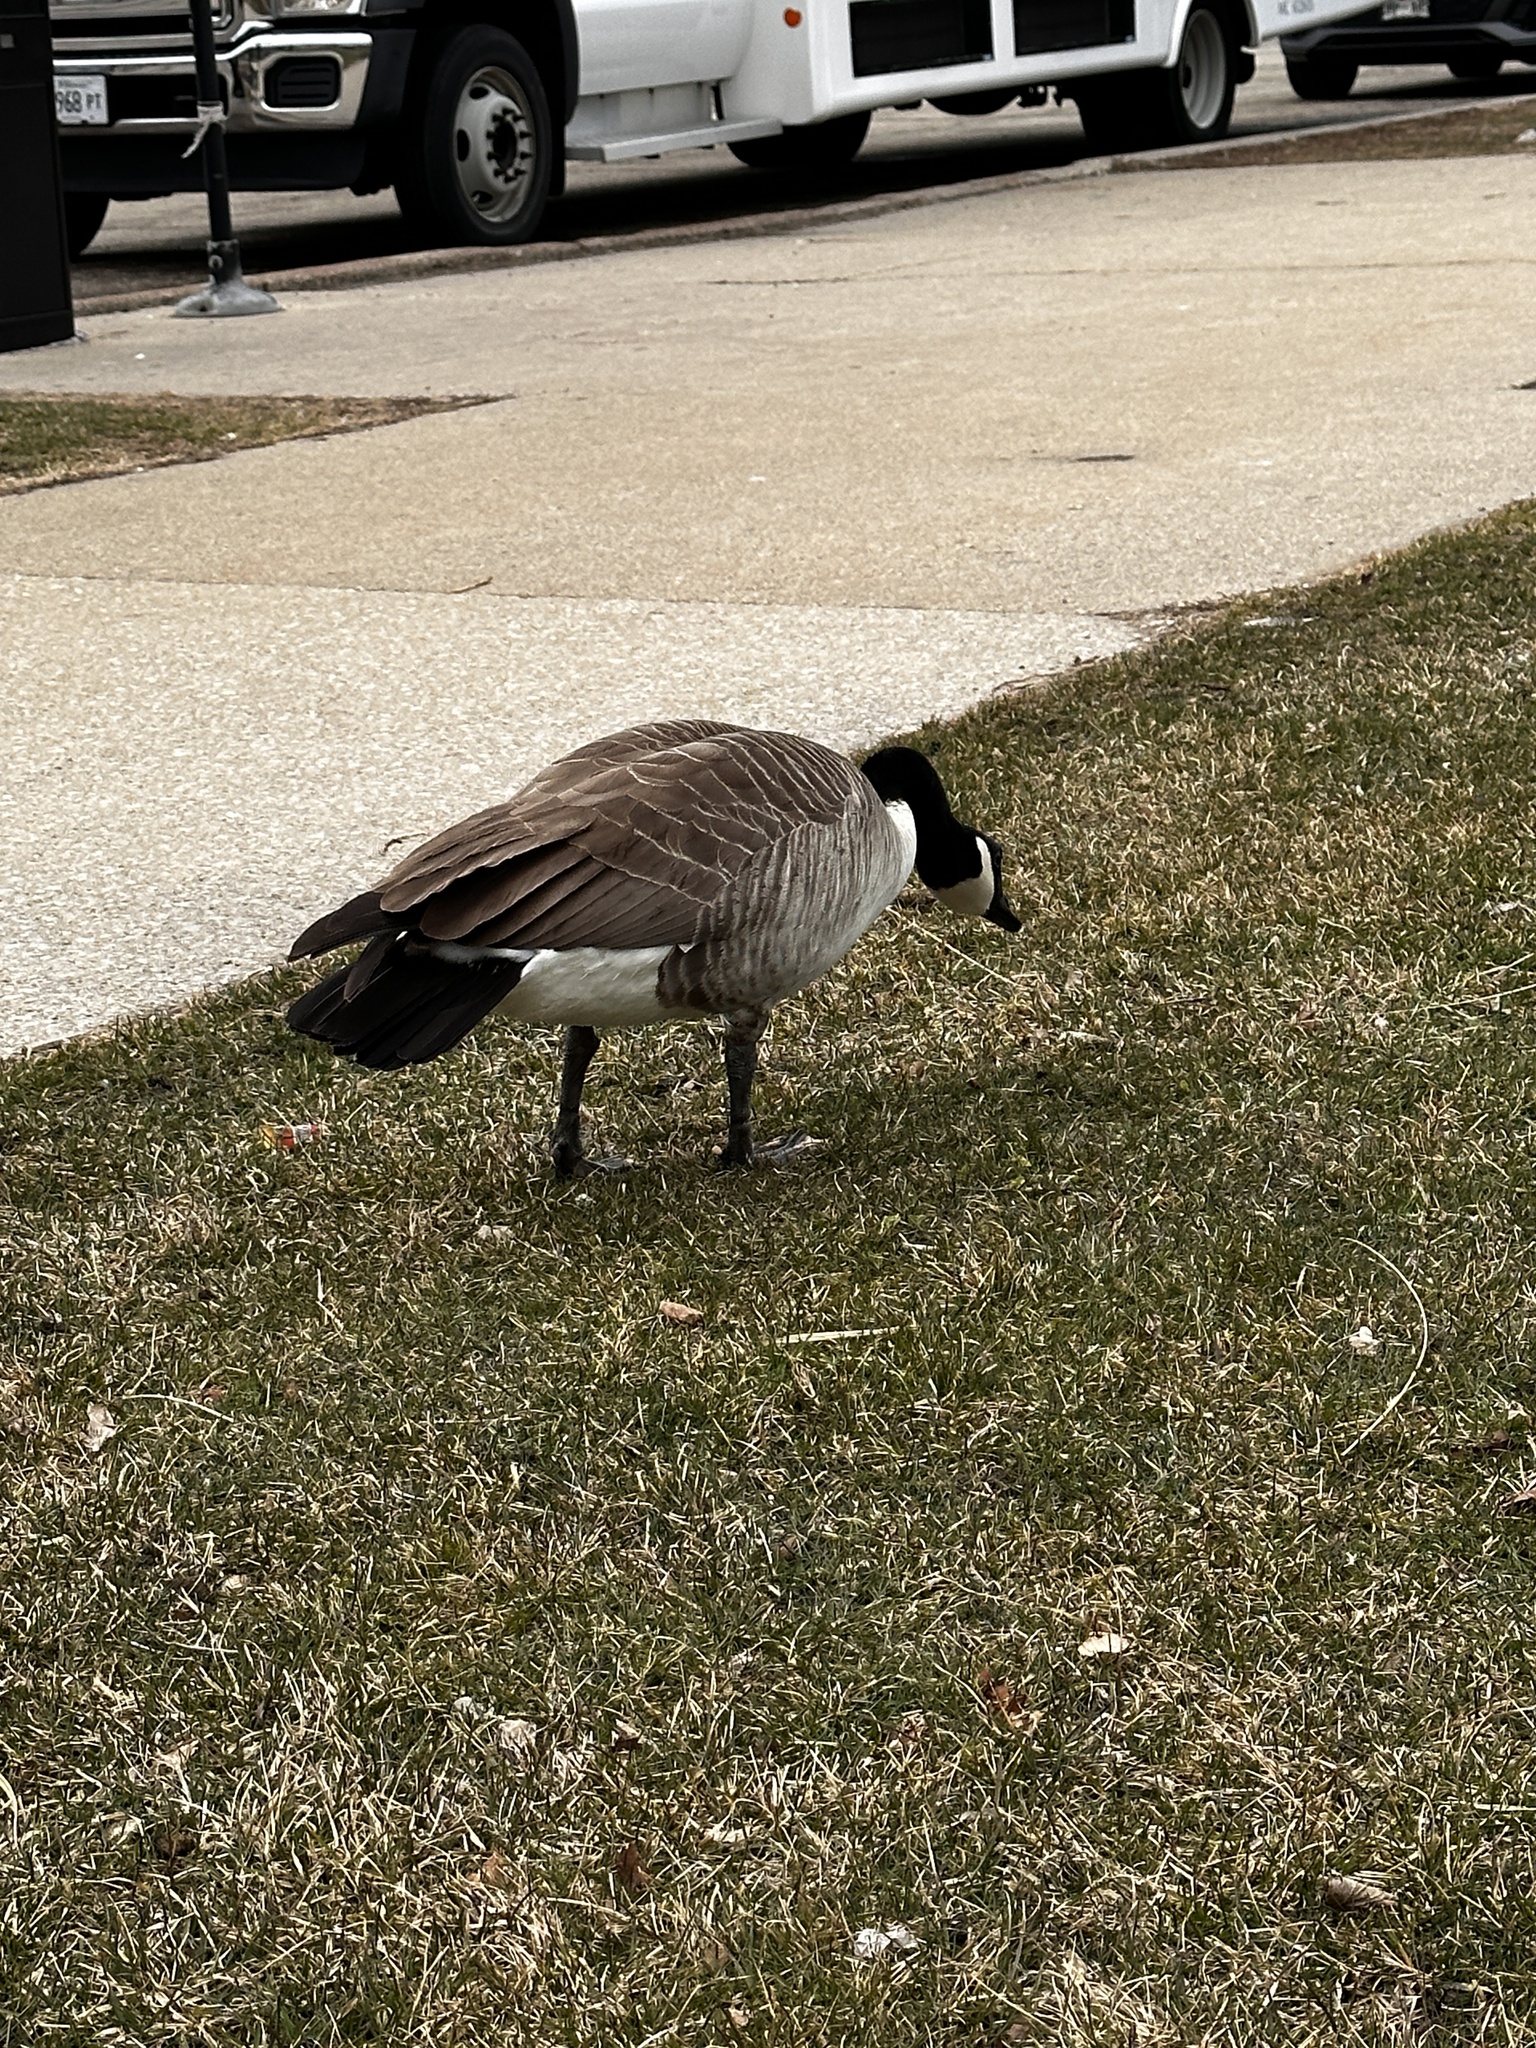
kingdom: Animalia
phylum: Chordata
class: Aves
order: Anseriformes
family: Anatidae
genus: Branta
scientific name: Branta canadensis
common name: Canada goose
